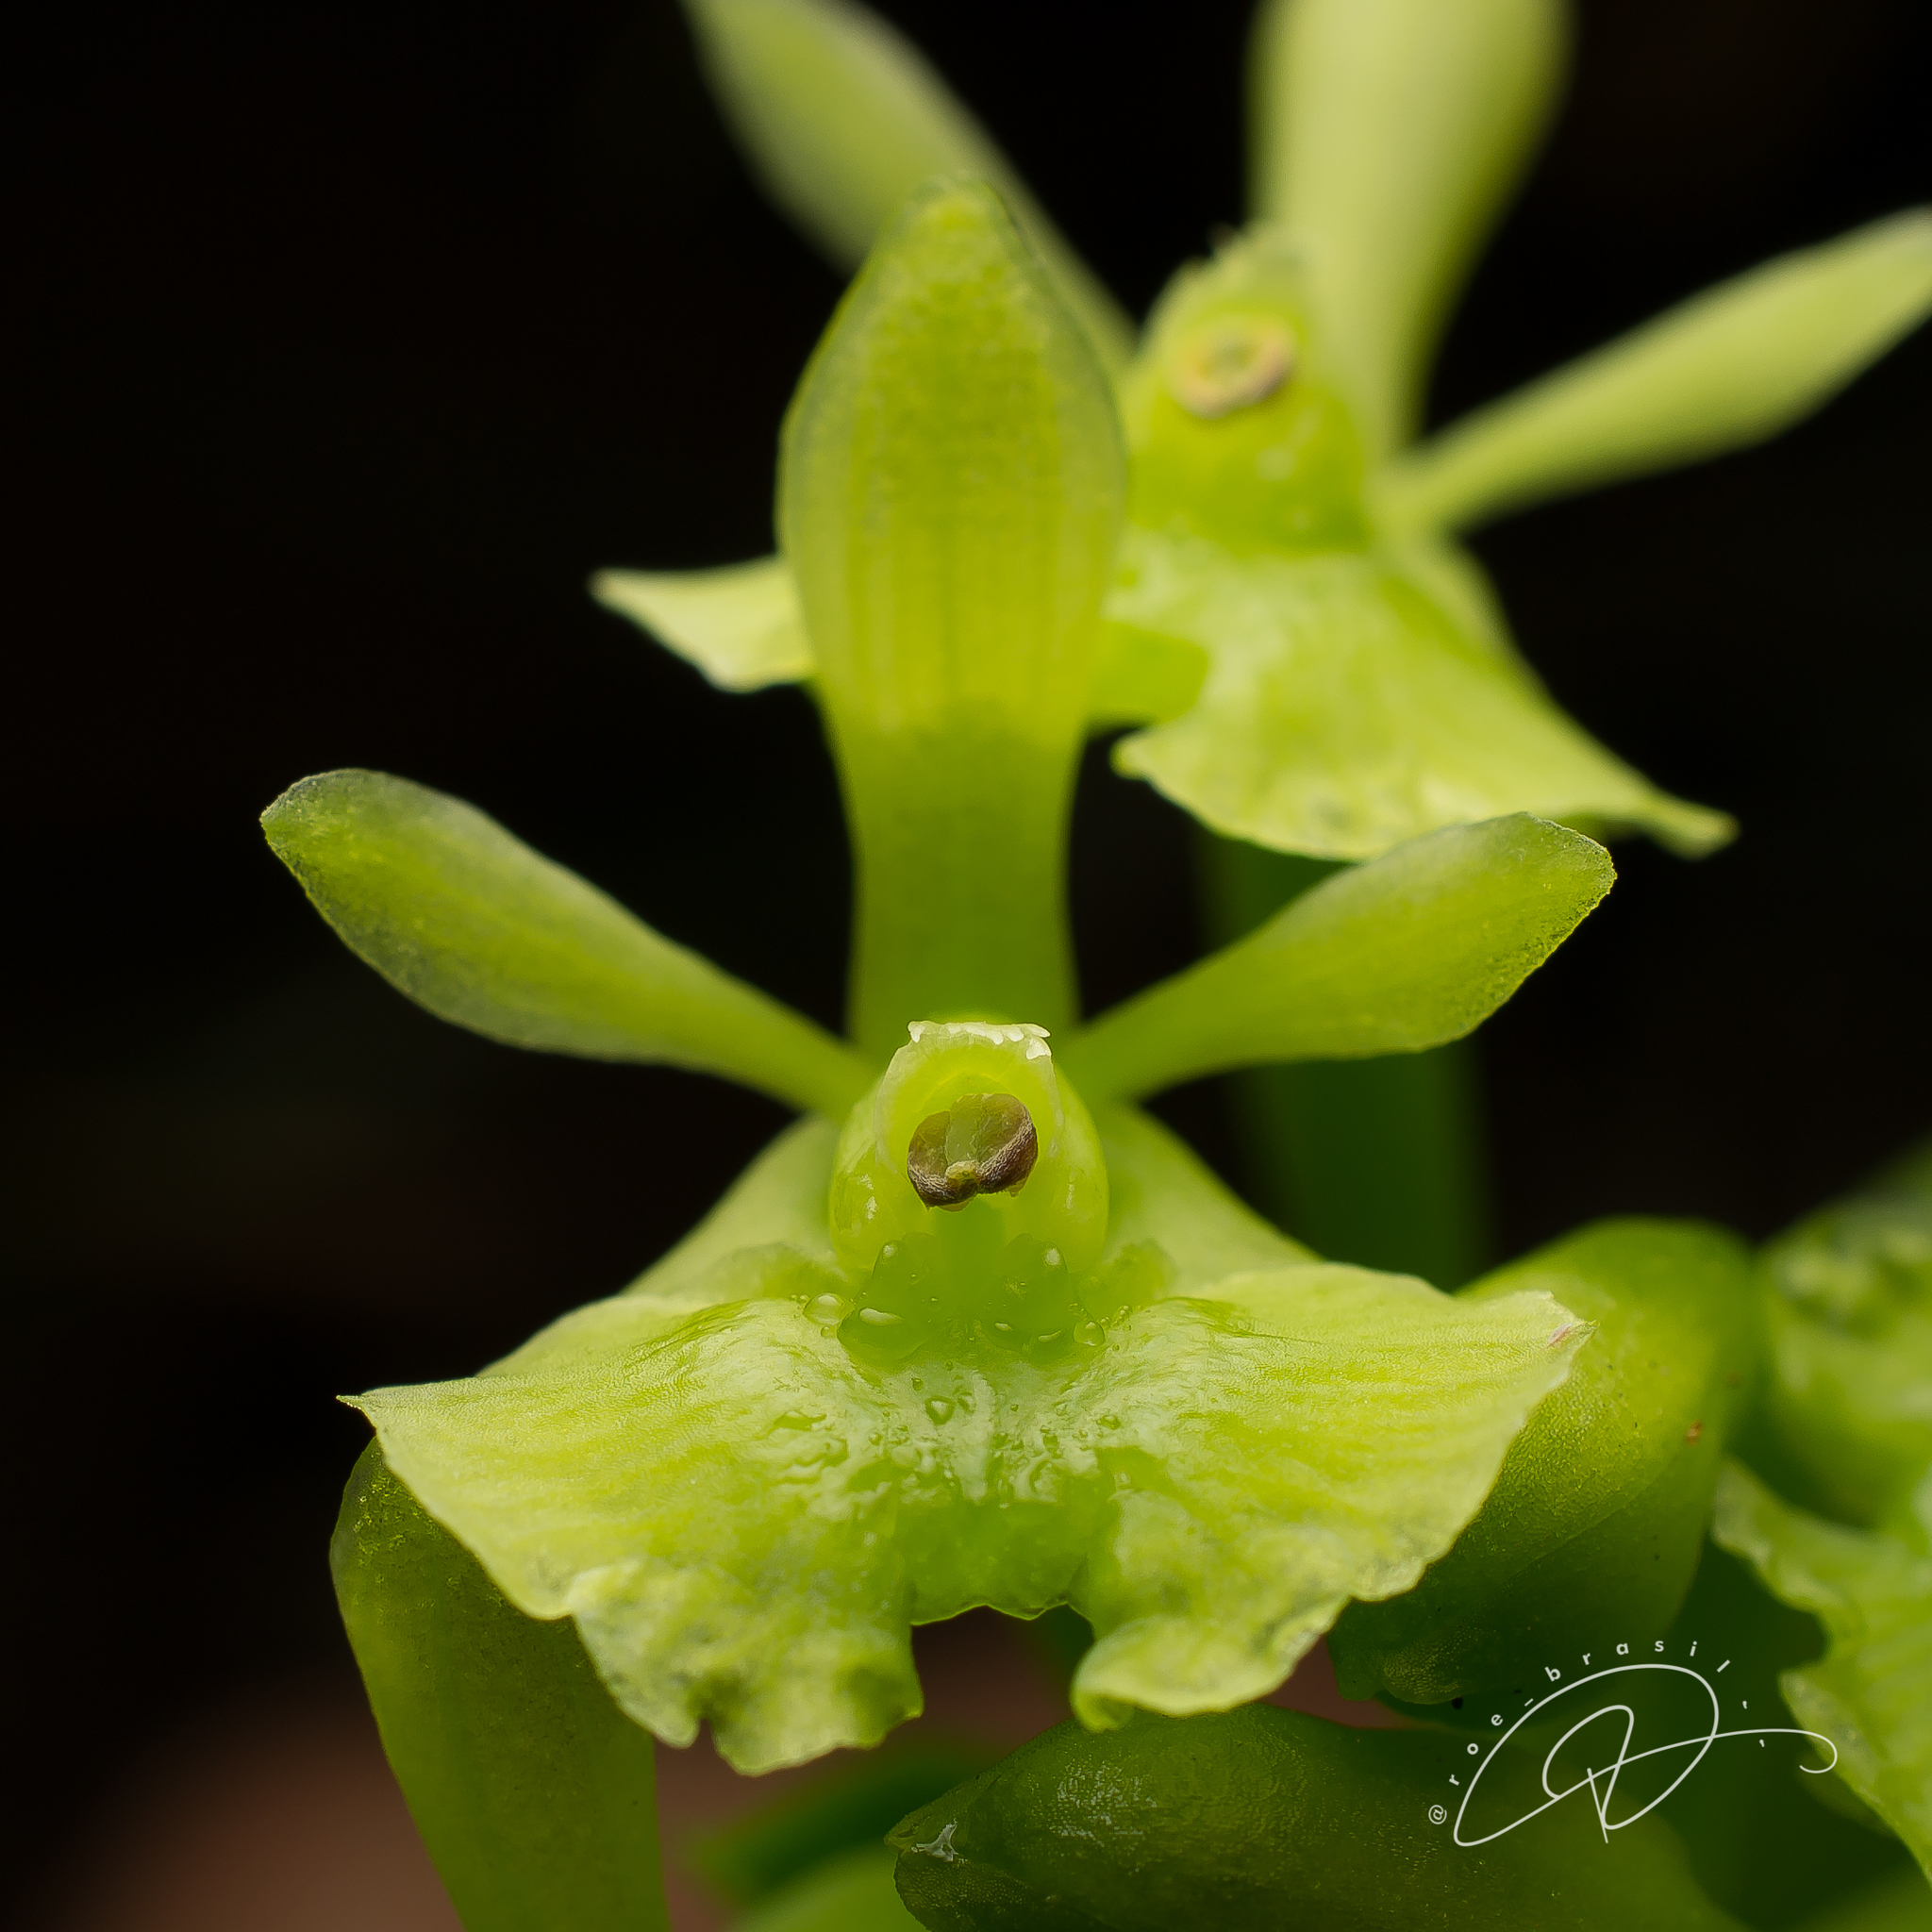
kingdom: Plantae
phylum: Tracheophyta
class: Liliopsida
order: Asparagales
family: Orchidaceae
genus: Epidendrum
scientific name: Epidendrum latilabre
